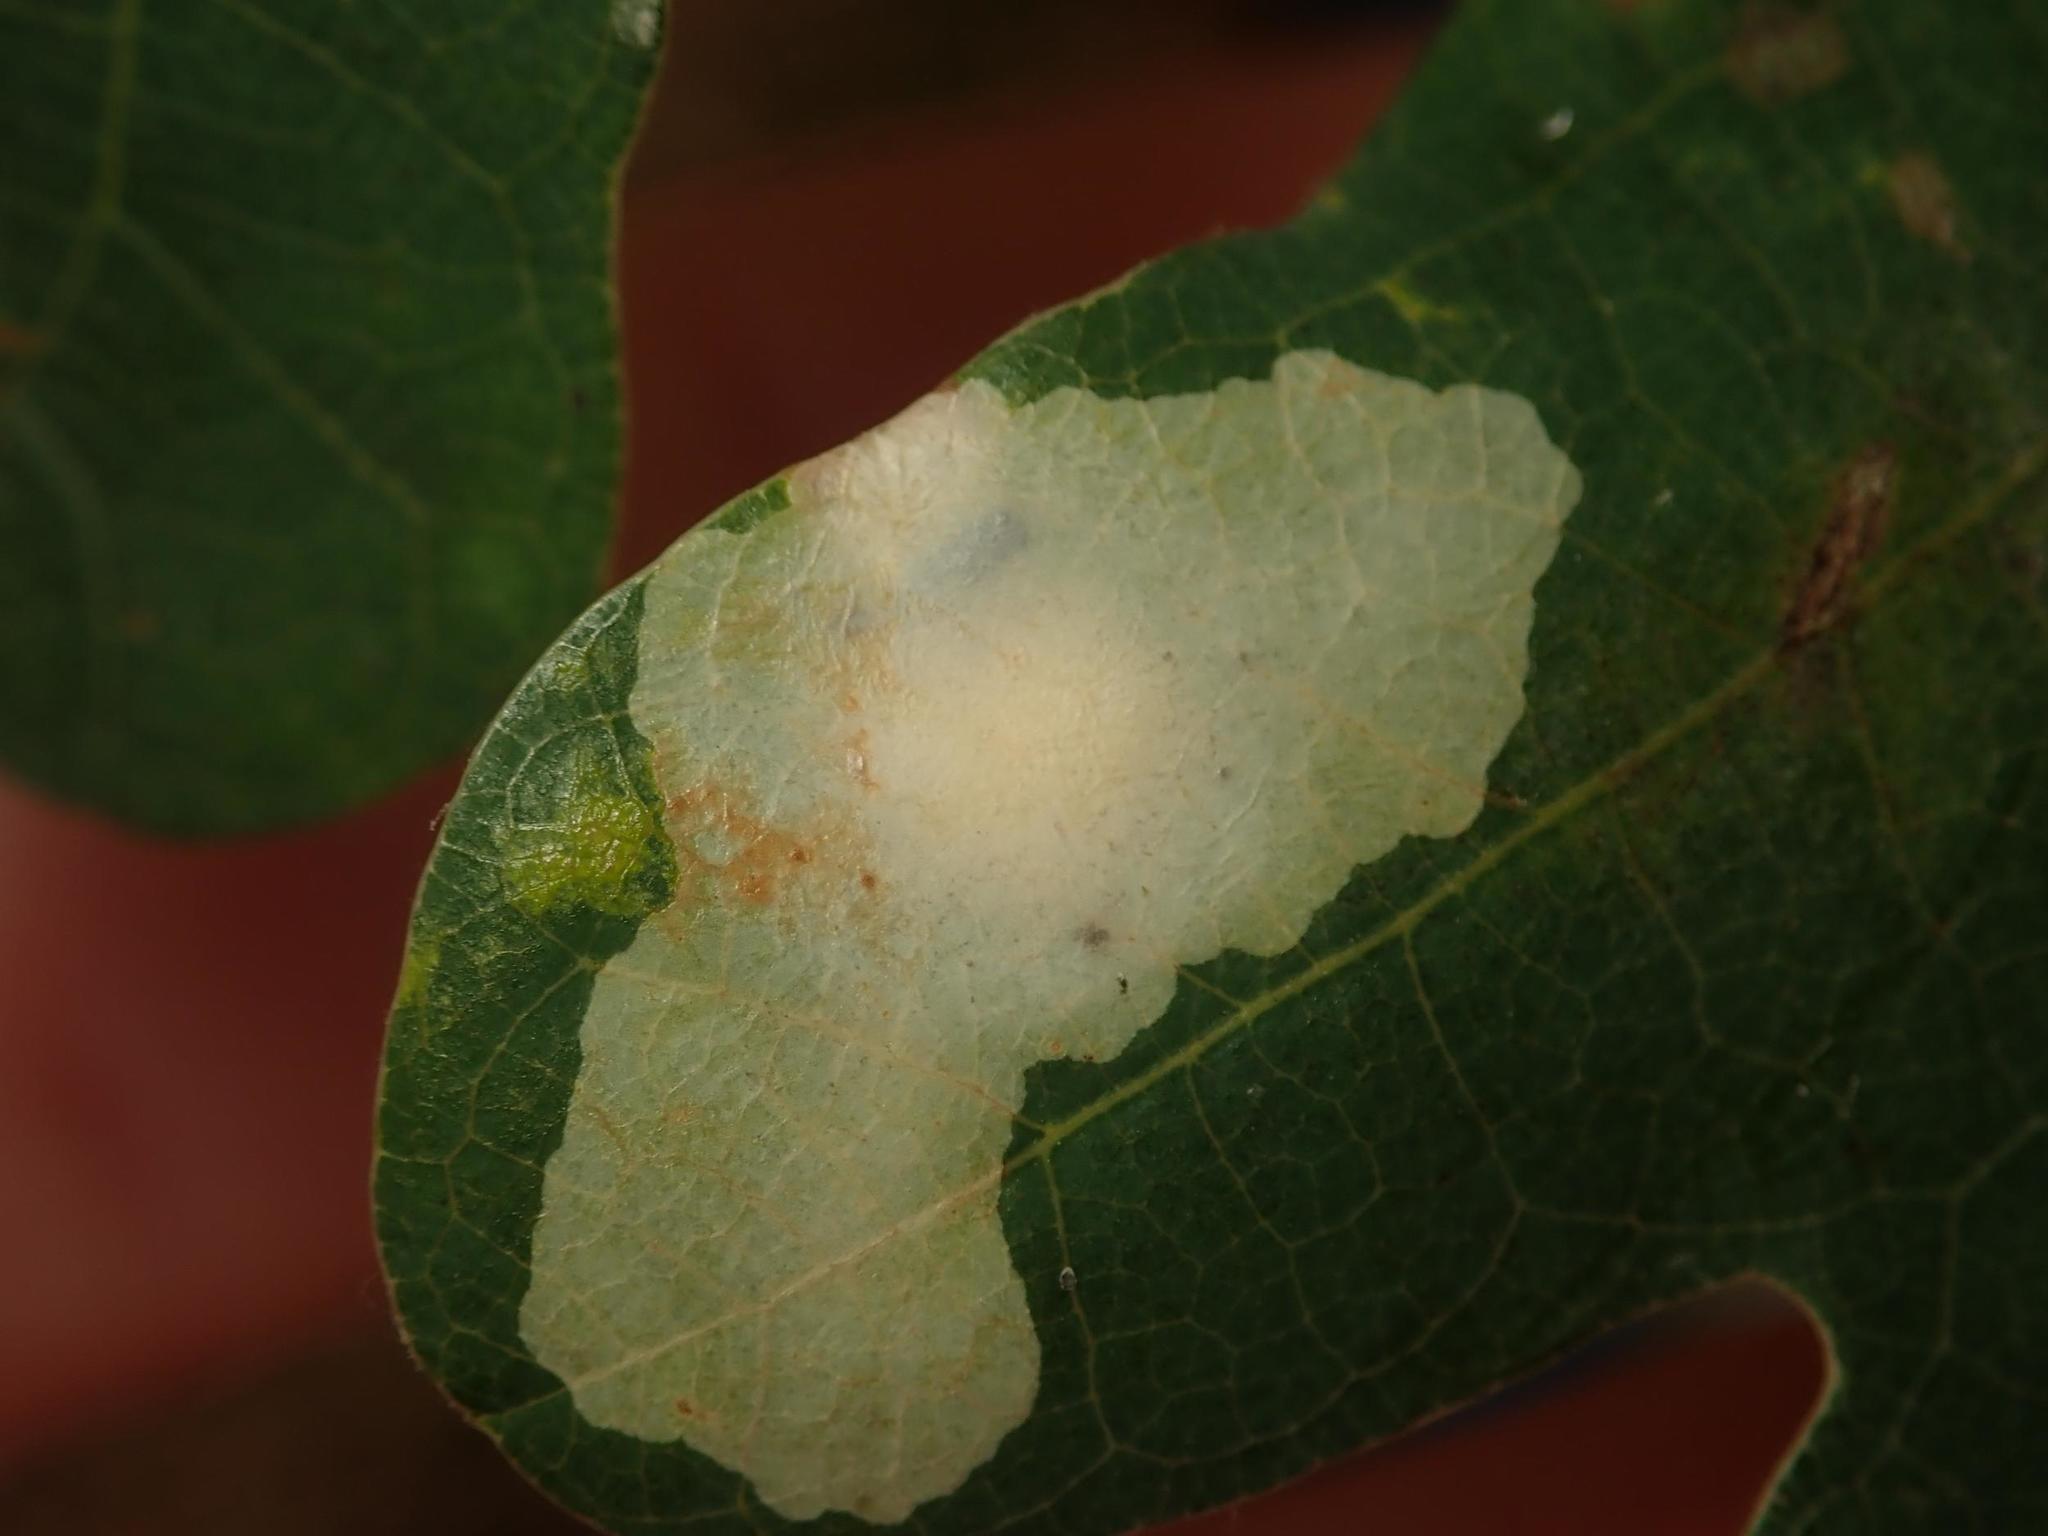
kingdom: Animalia
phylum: Arthropoda
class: Insecta
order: Lepidoptera
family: Tischeriidae
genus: Tischeria
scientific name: Tischeria ekebladella
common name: Oak carl
